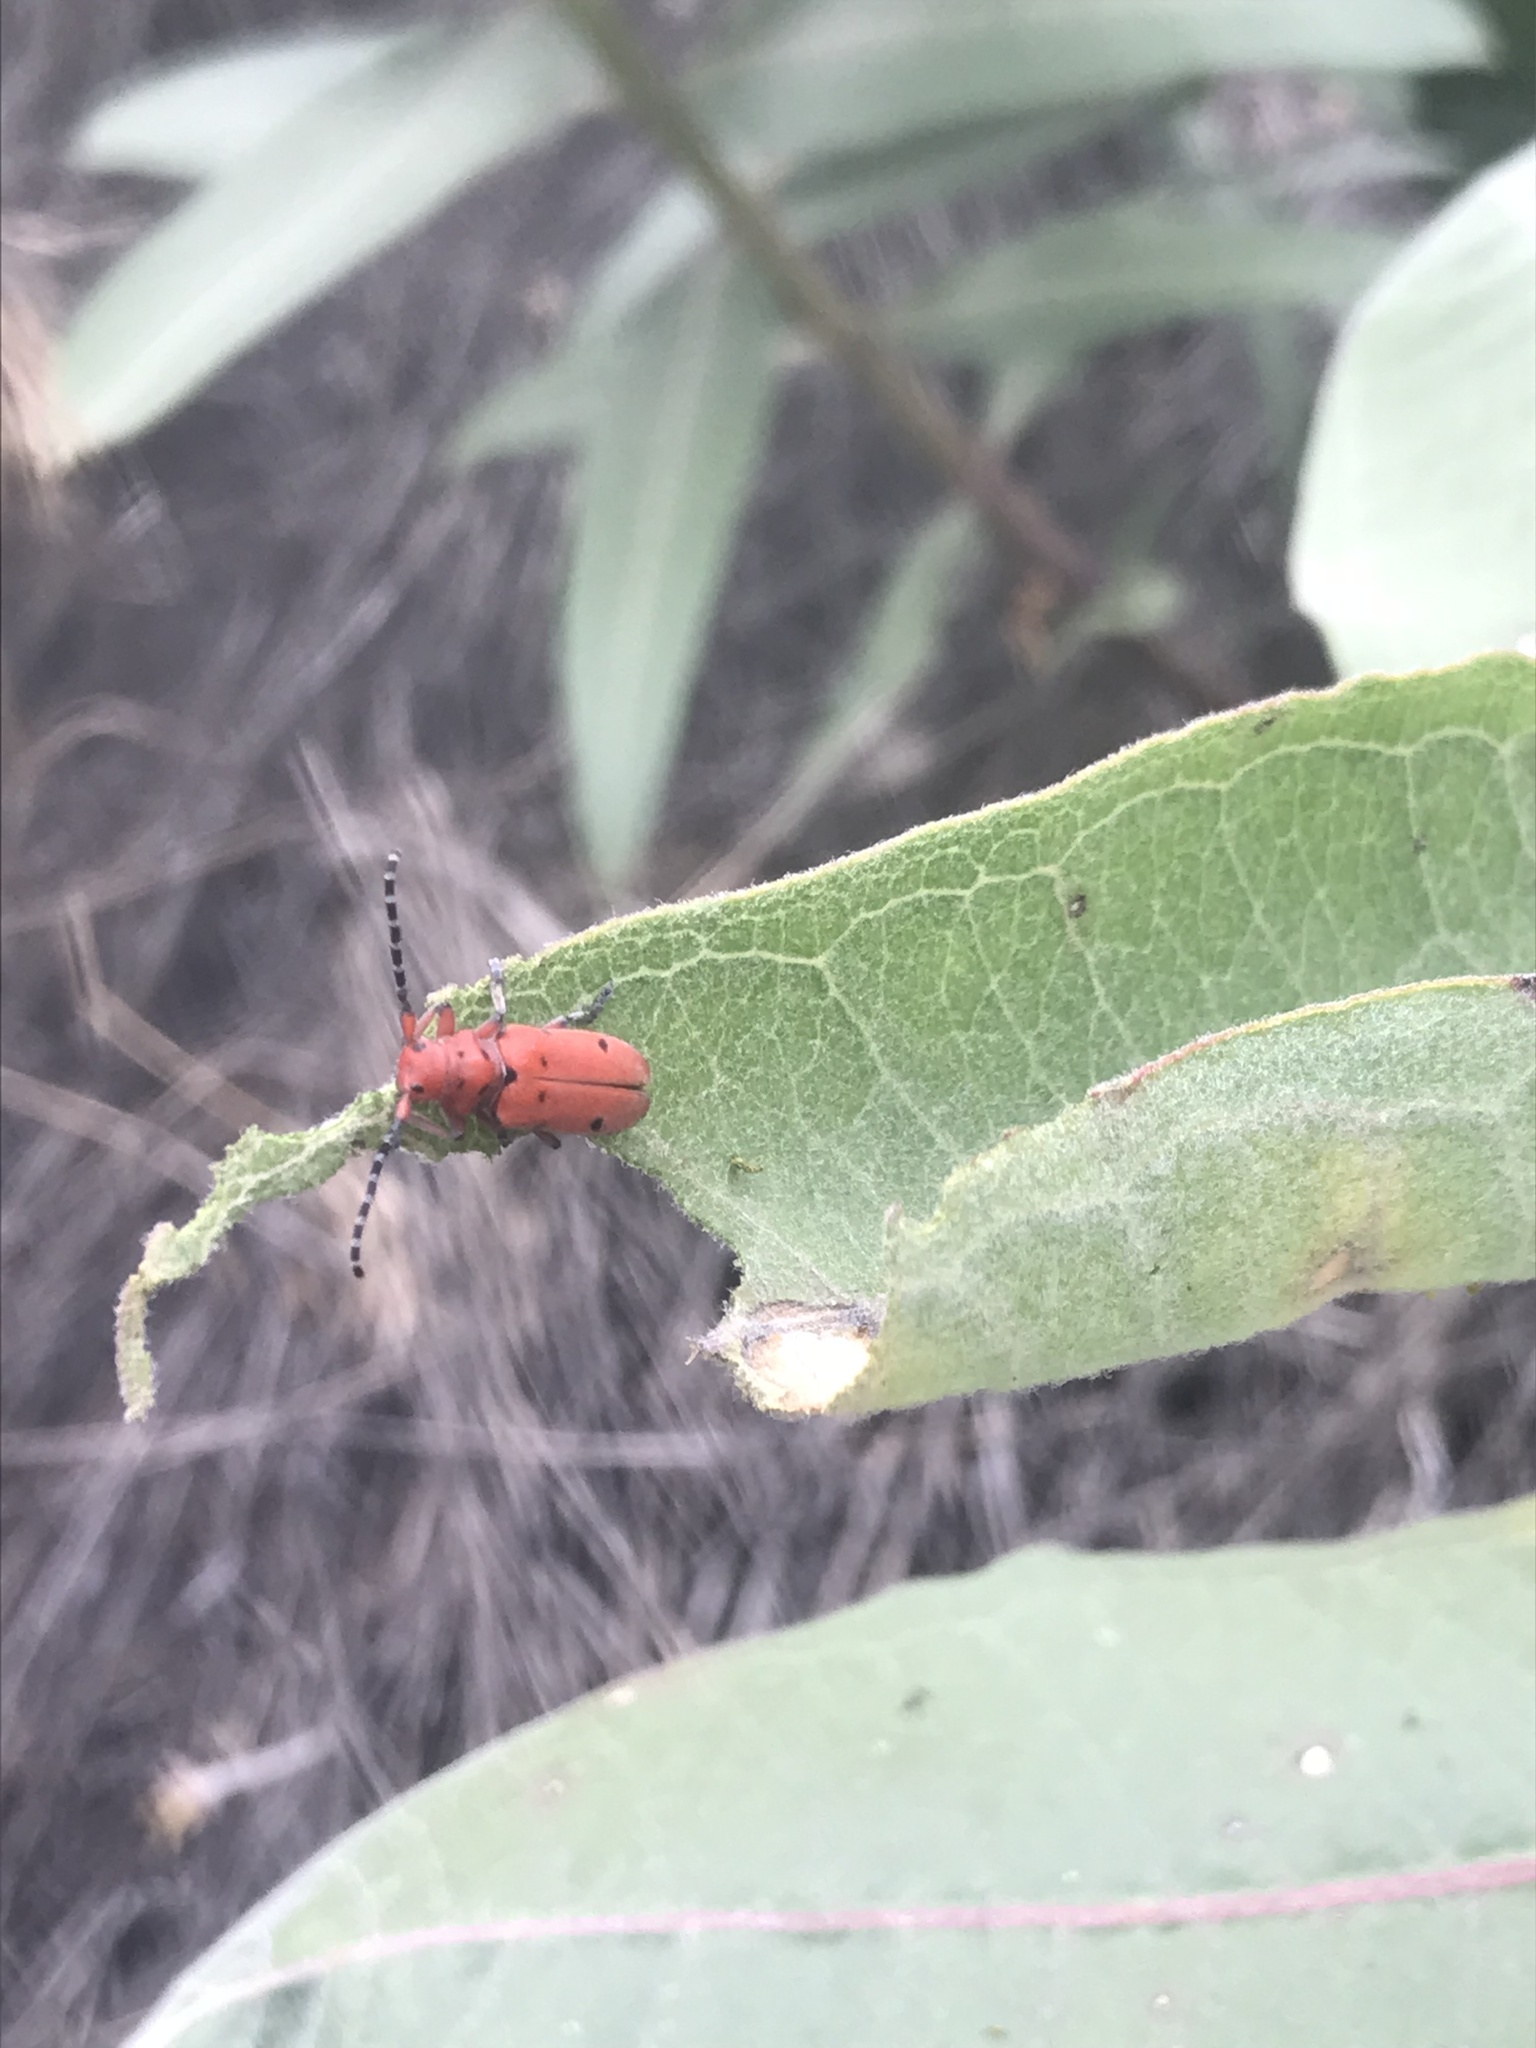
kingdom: Animalia
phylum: Arthropoda
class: Insecta
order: Coleoptera
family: Cerambycidae
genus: Tetraopes
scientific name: Tetraopes femoratus
